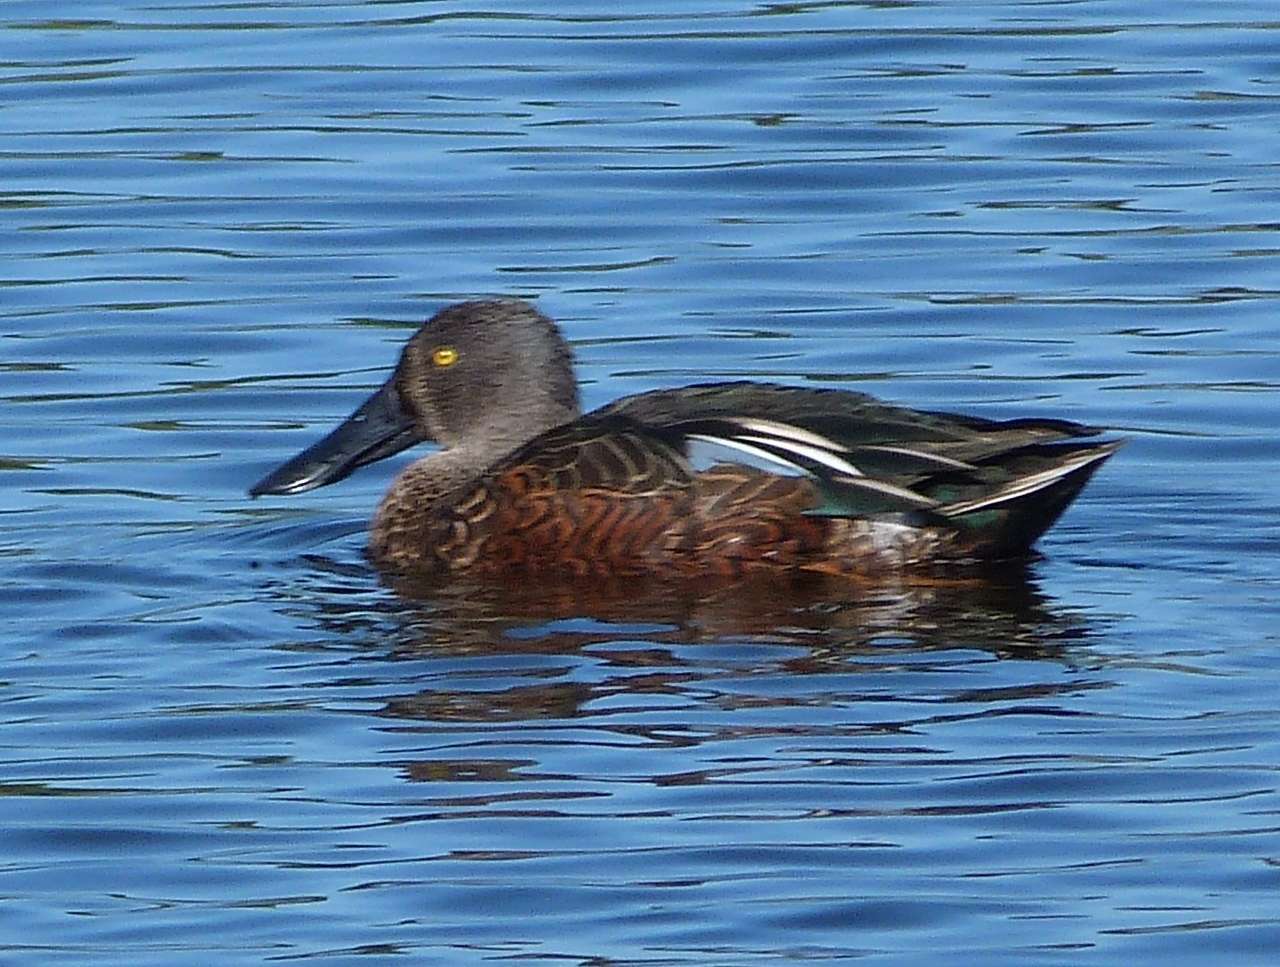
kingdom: Animalia
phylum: Chordata
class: Aves
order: Anseriformes
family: Anatidae
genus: Spatula
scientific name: Spatula rhynchotis
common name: Australian shoveler
